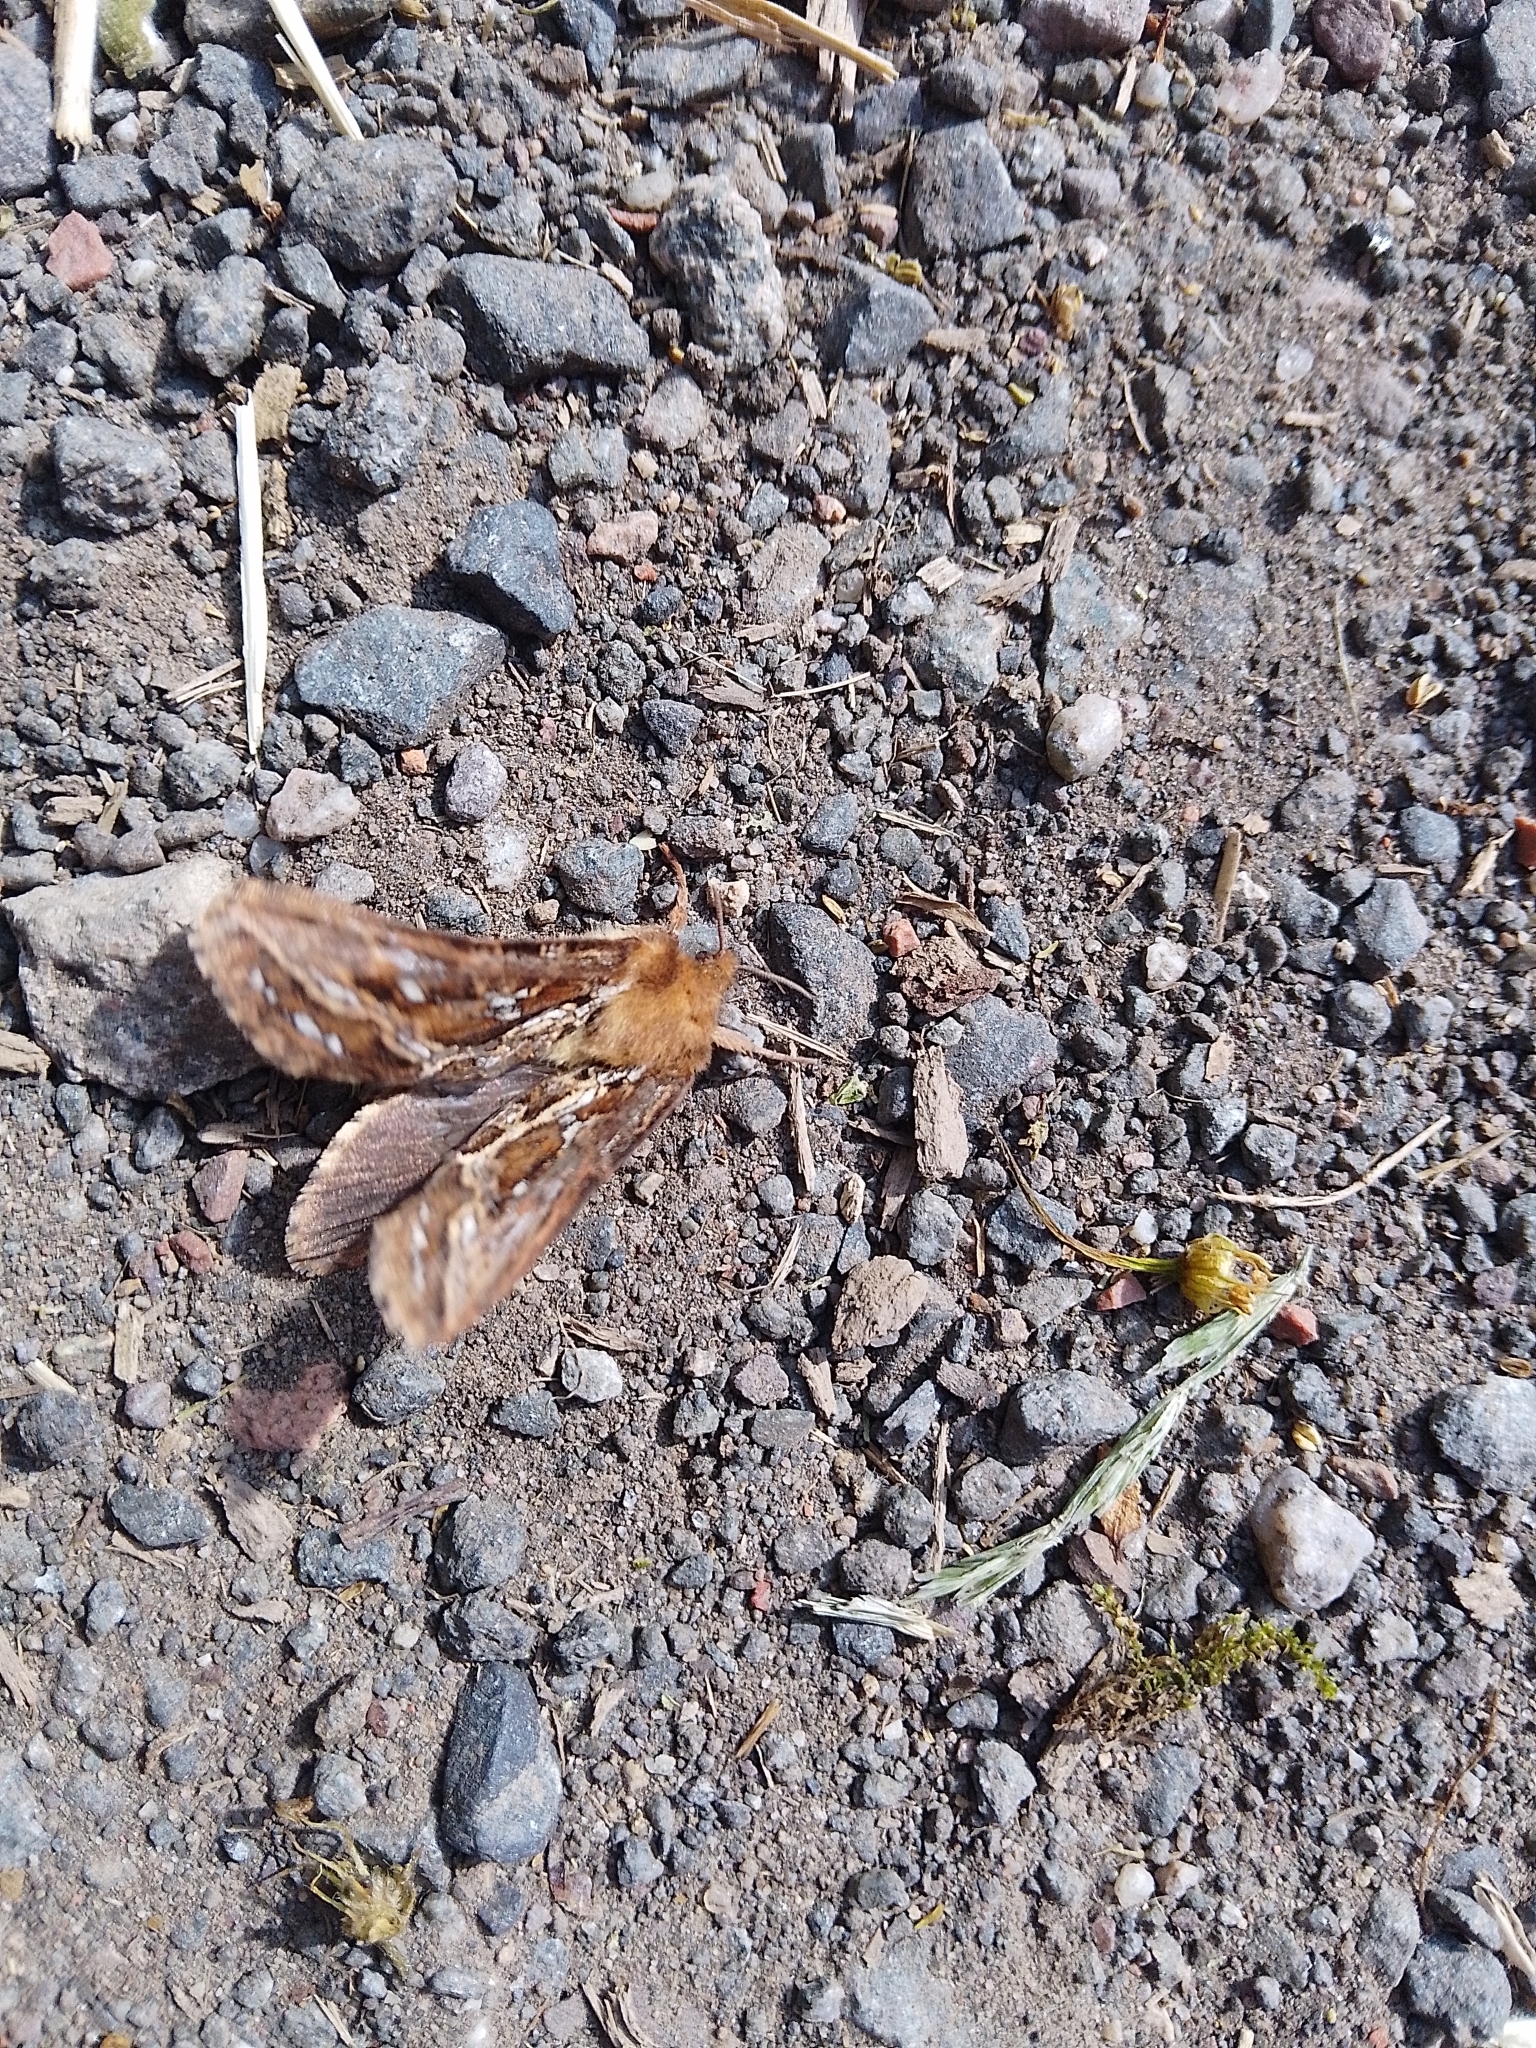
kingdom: Animalia
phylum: Arthropoda
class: Insecta
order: Lepidoptera
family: Hepialidae
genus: Korscheltellus
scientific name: Korscheltellus fusconebulosus
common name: Map-winged swift
